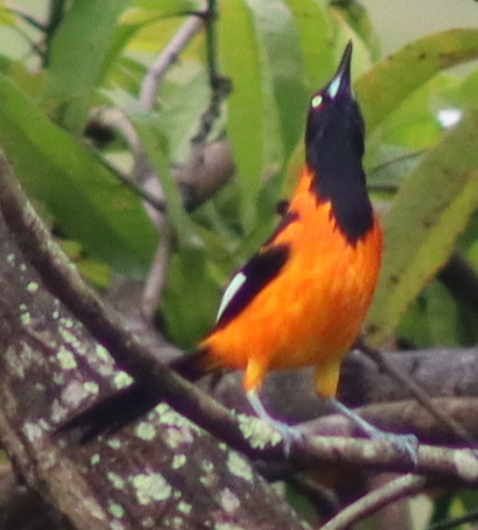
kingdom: Animalia
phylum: Chordata
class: Aves
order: Passeriformes
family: Icteridae
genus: Icterus
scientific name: Icterus icterus
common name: Venezuelan troupial
